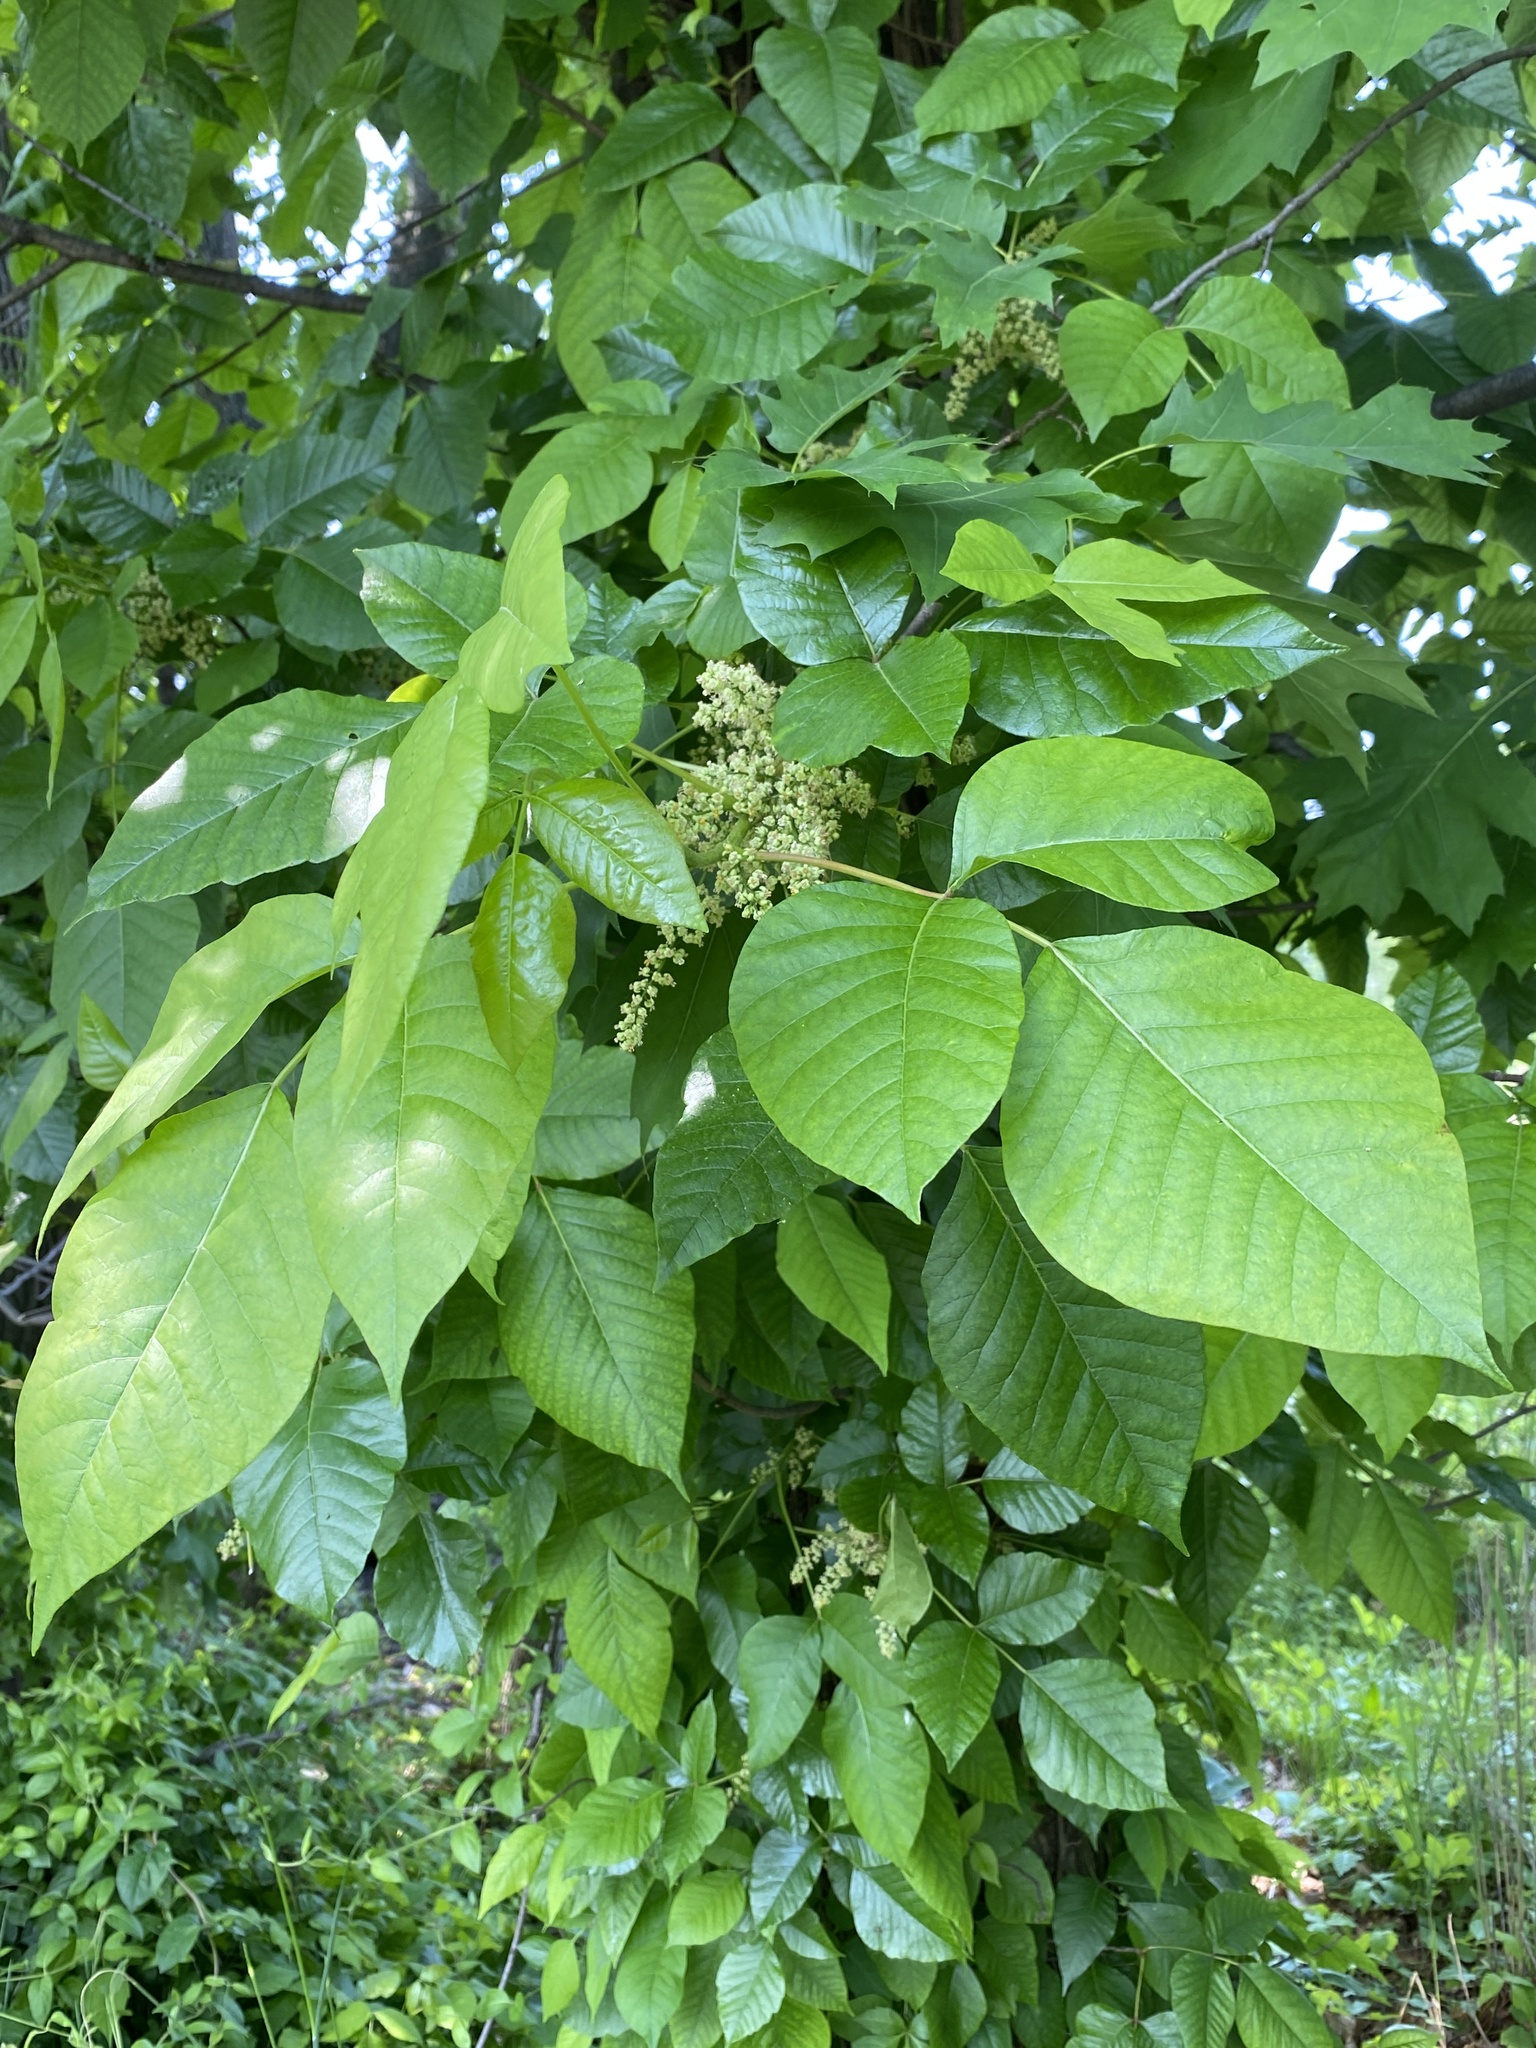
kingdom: Plantae
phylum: Tracheophyta
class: Magnoliopsida
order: Sapindales
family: Anacardiaceae
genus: Toxicodendron
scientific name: Toxicodendron radicans
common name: Poison ivy
